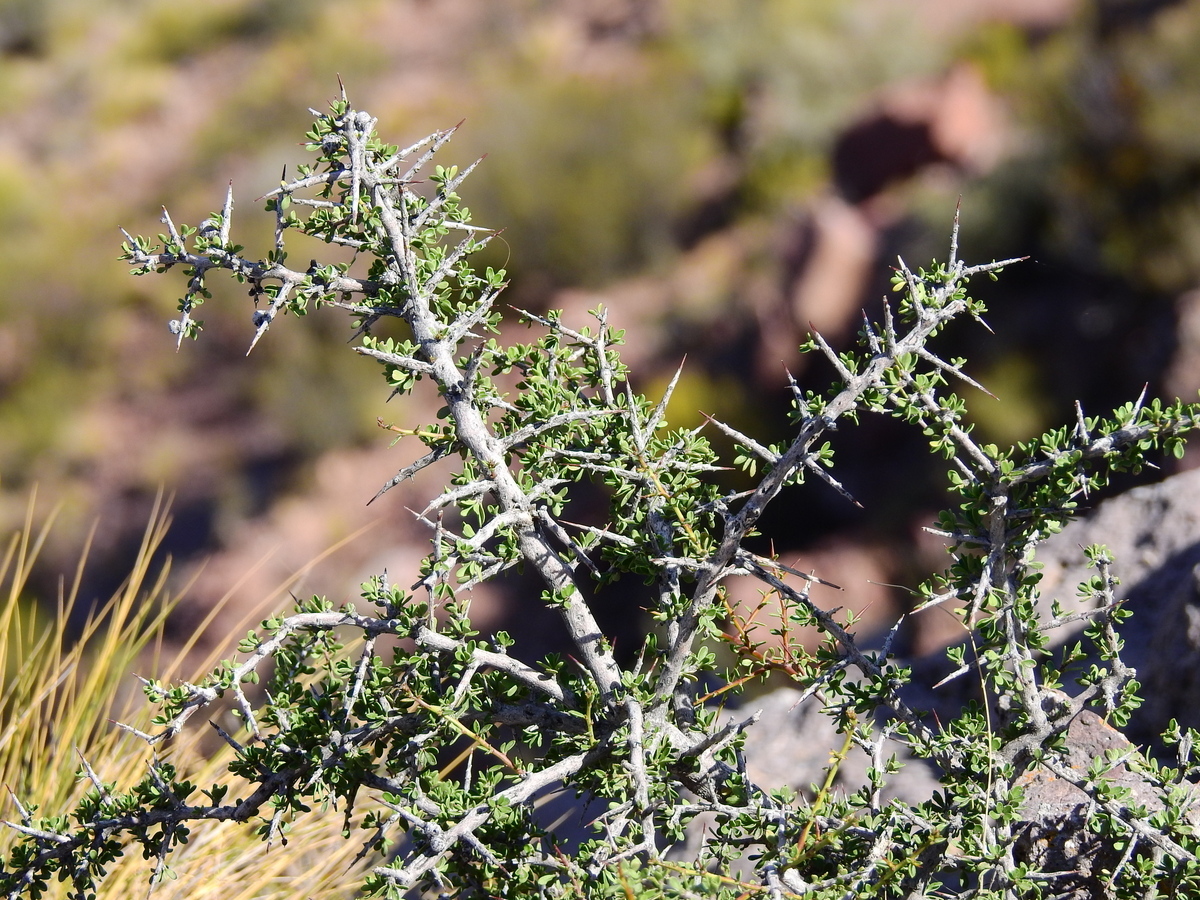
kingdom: Plantae
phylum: Tracheophyta
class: Magnoliopsida
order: Rosales
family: Rhamnaceae
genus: Condalia
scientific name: Condalia microphylla
